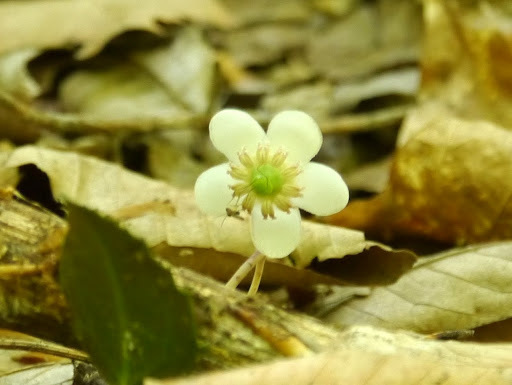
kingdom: Plantae
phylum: Tracheophyta
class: Magnoliopsida
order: Ericales
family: Ericaceae
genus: Chimaphila
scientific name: Chimaphila maculata
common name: Spotted pipsissewa
